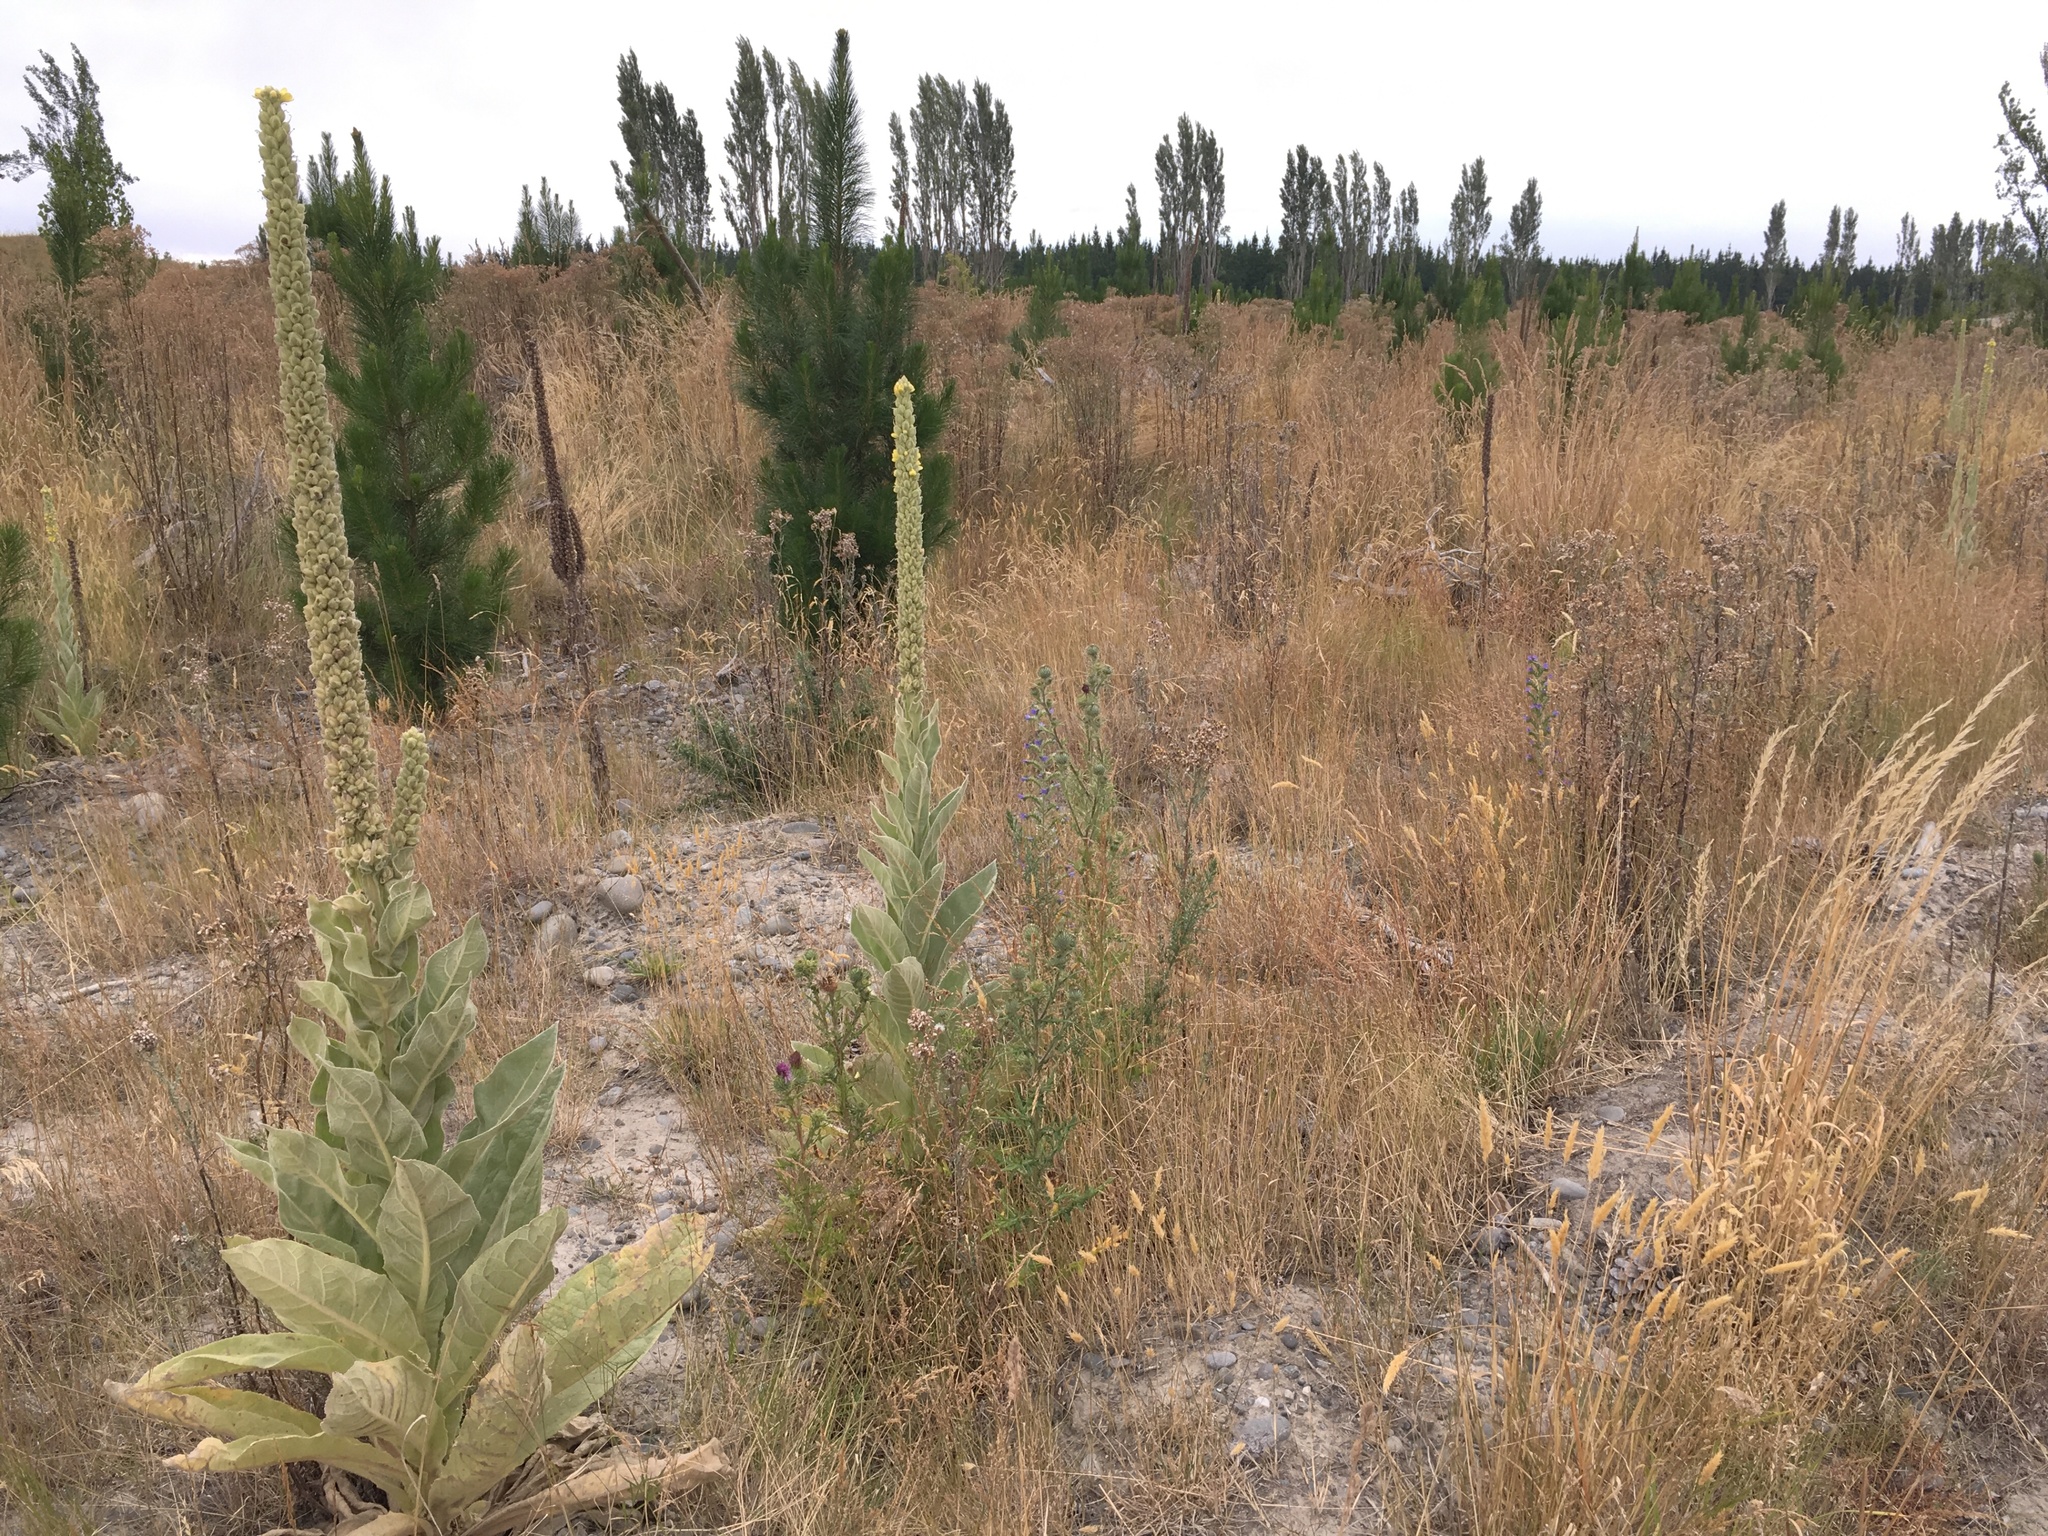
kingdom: Plantae
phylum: Tracheophyta
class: Magnoliopsida
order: Lamiales
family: Scrophulariaceae
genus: Verbascum
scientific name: Verbascum thapsus
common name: Common mullein
